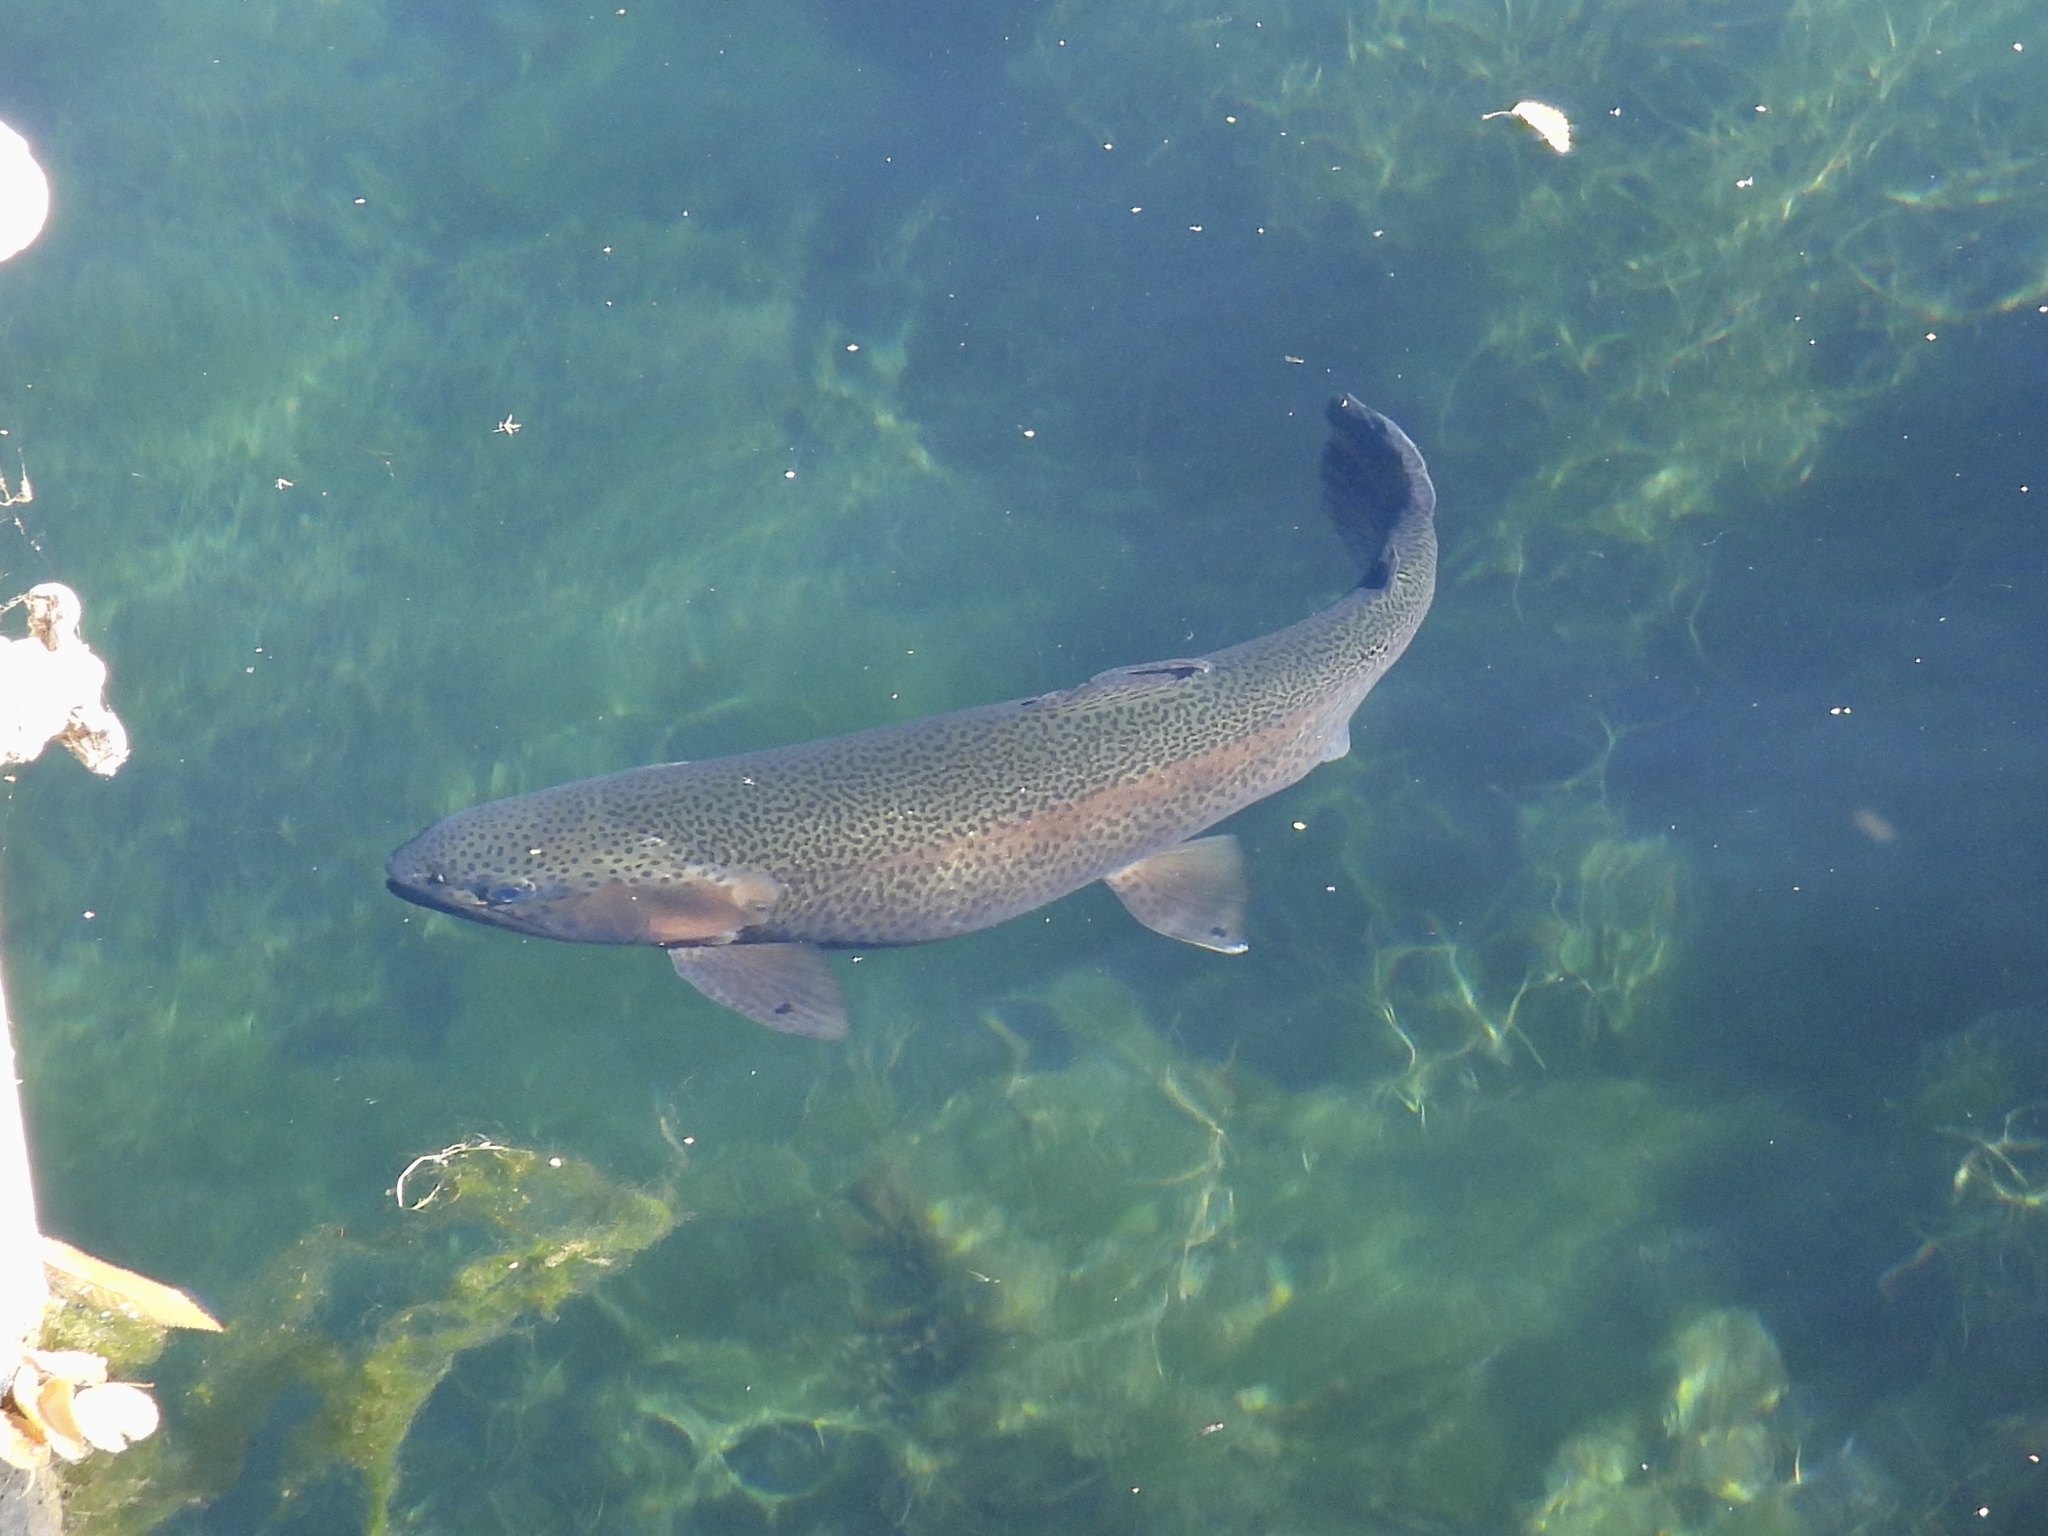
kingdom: Animalia
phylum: Chordata
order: Salmoniformes
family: Salmonidae
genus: Oncorhynchus
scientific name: Oncorhynchus mykiss
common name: Rainbow trout
